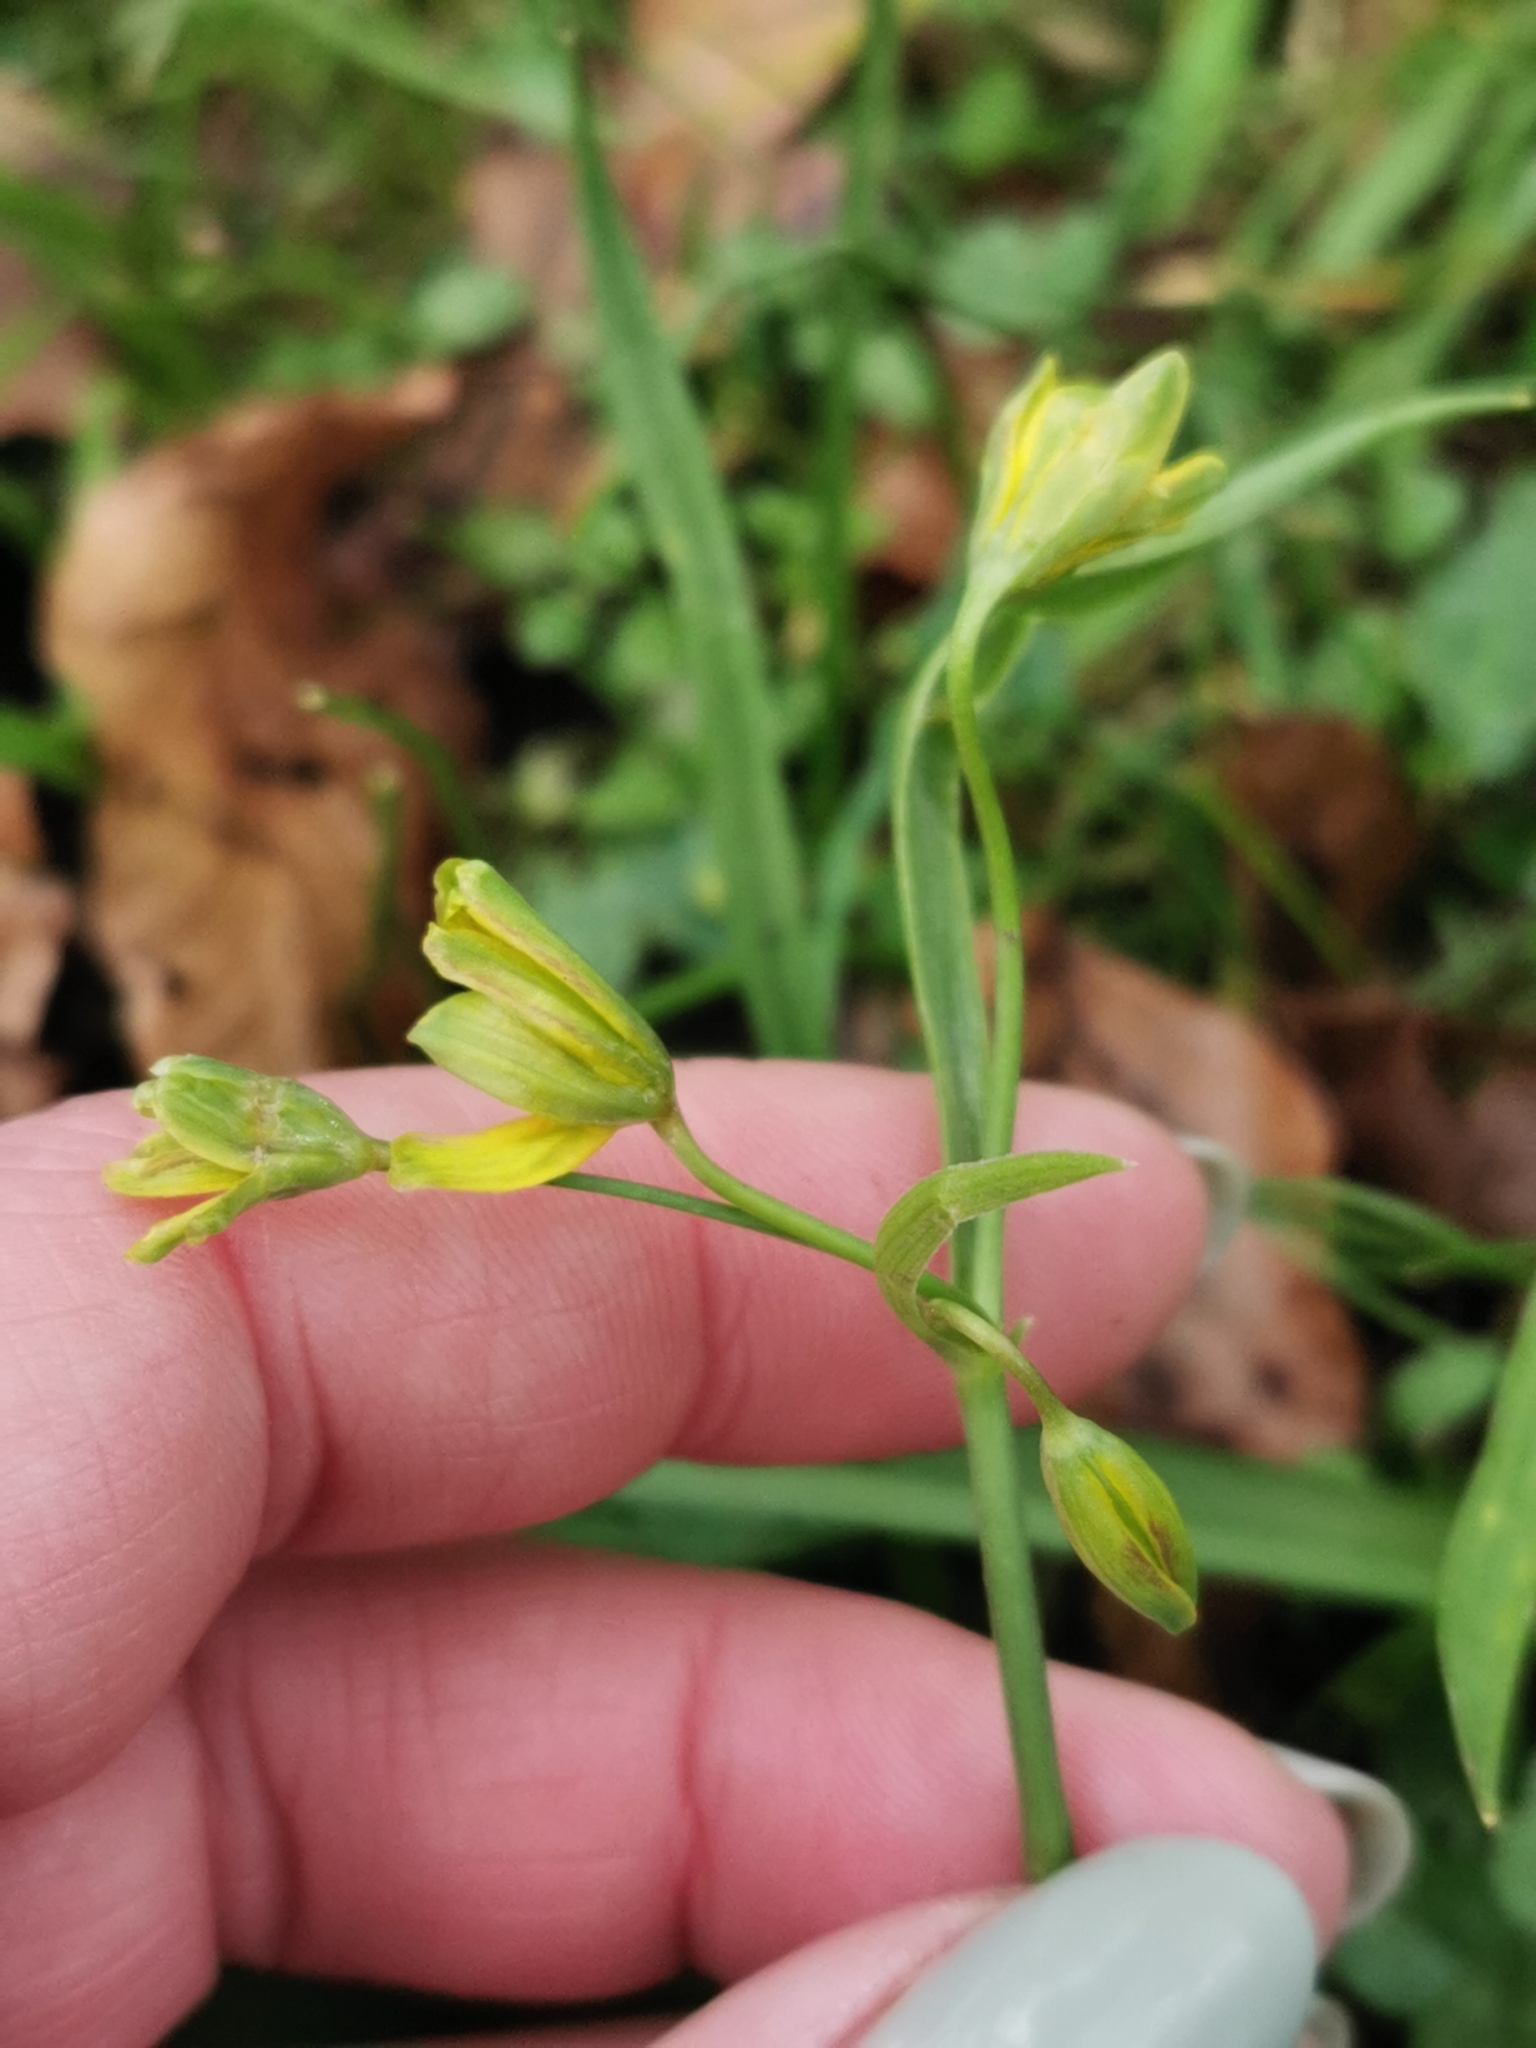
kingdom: Plantae
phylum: Tracheophyta
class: Liliopsida
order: Liliales
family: Liliaceae
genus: Gagea
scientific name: Gagea lutea
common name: Yellow star-of-bethlehem
